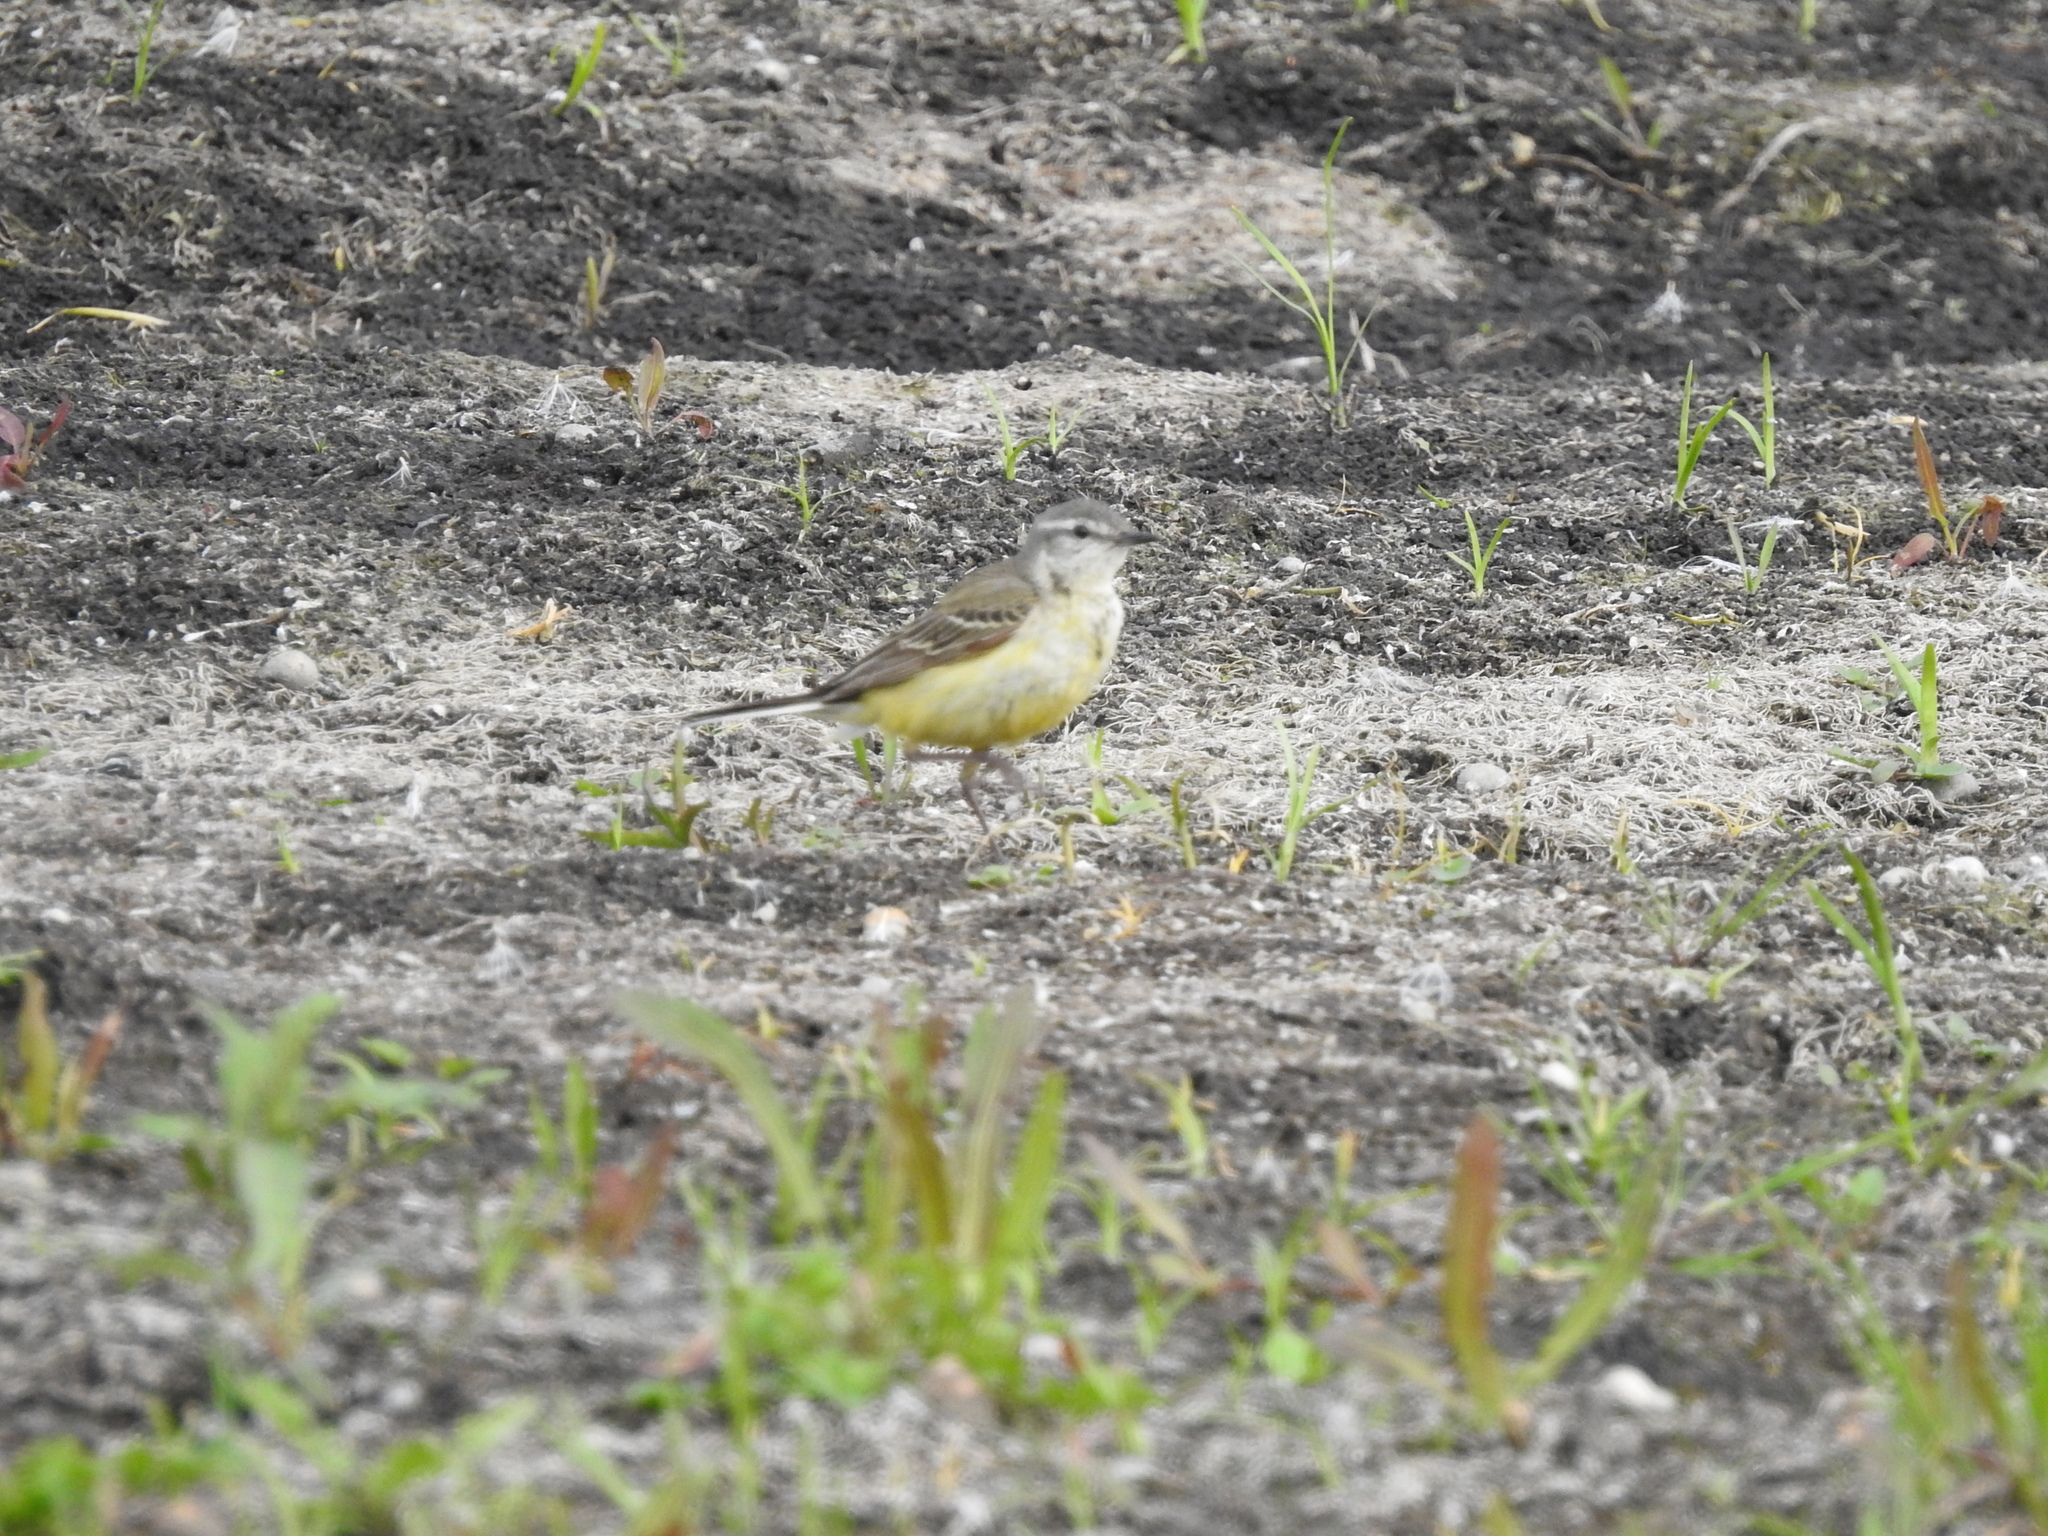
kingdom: Animalia
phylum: Chordata
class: Aves
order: Passeriformes
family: Motacillidae
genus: Motacilla
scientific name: Motacilla flava
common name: Western yellow wagtail
